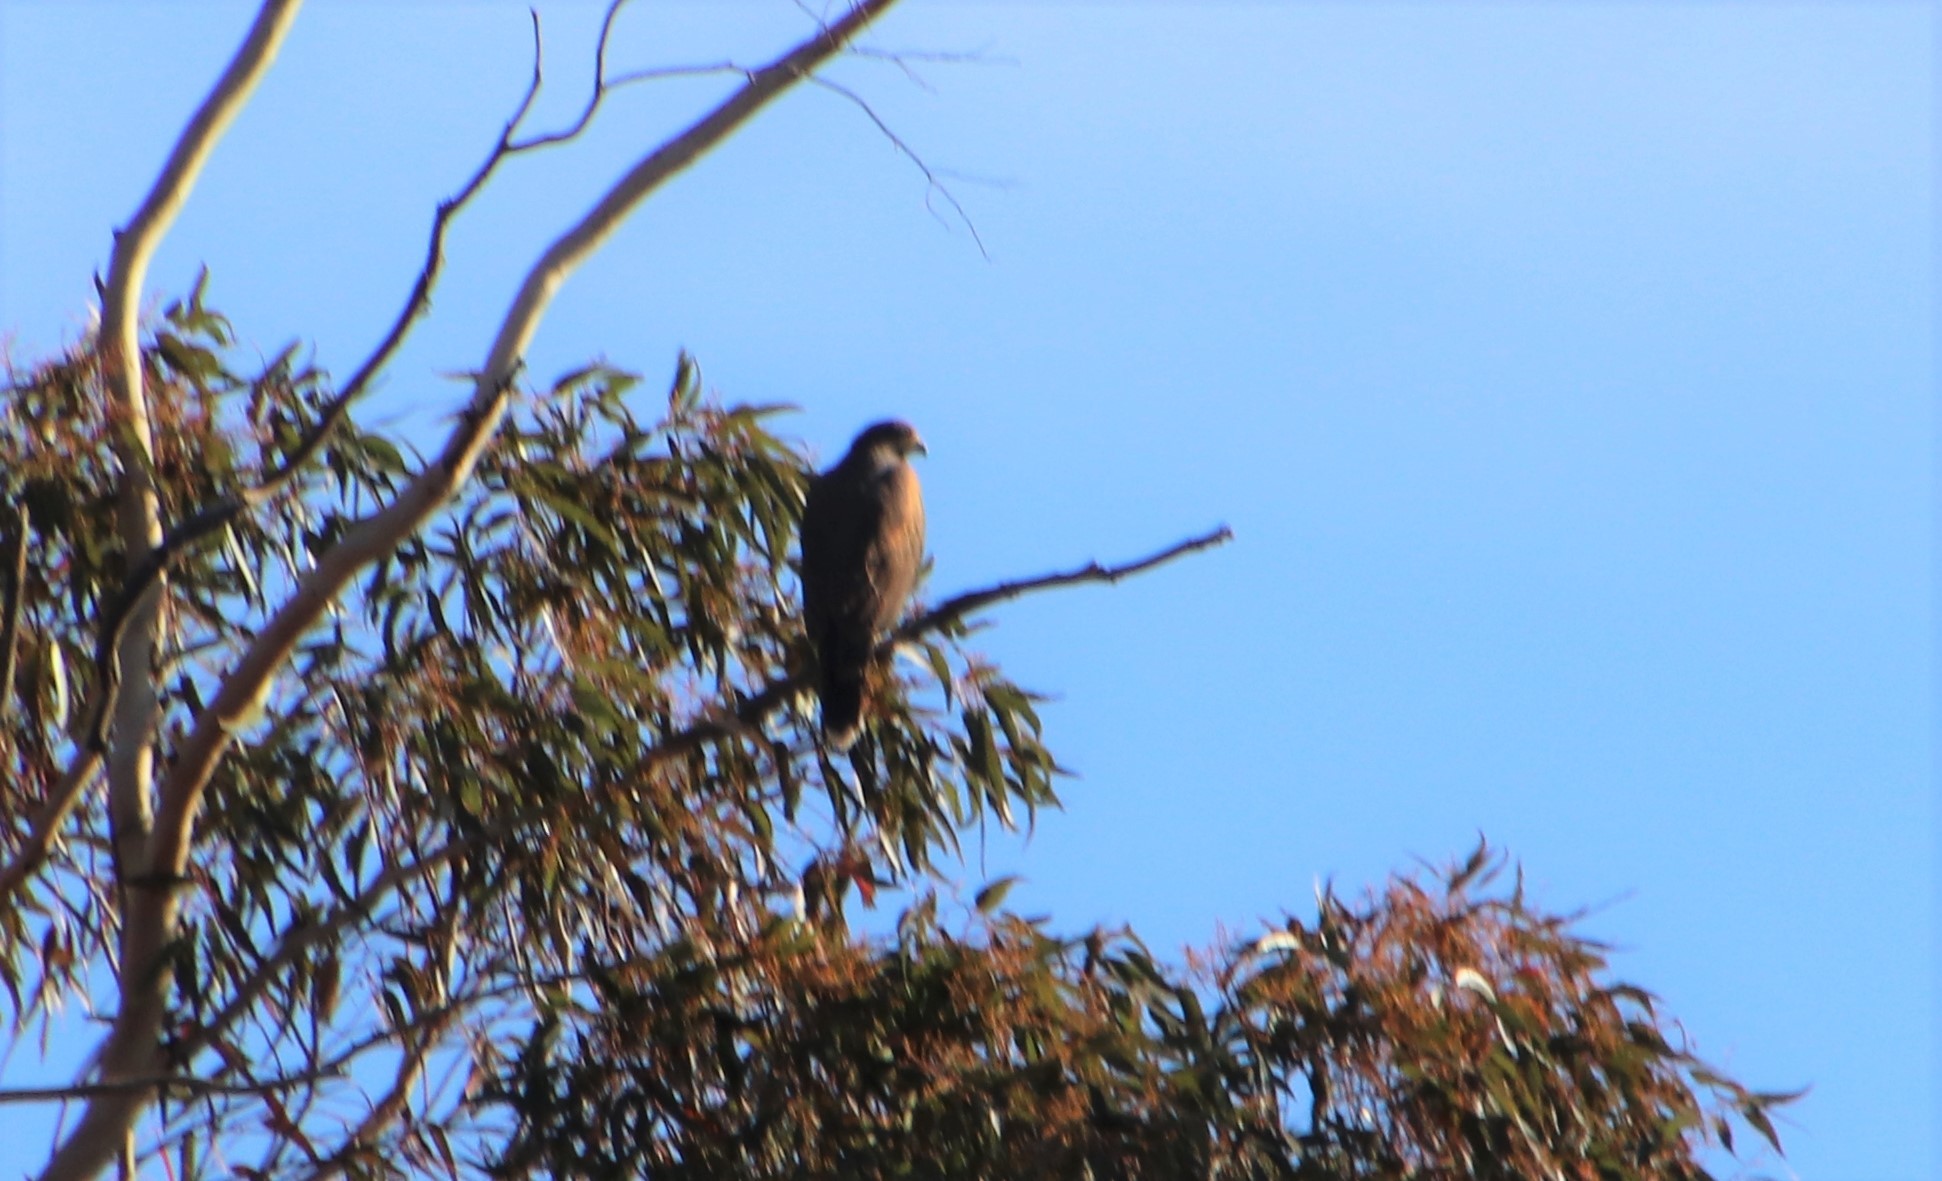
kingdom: Animalia
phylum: Chordata
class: Aves
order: Accipitriformes
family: Accipitridae
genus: Parabuteo
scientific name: Parabuteo unicinctus
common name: Harris's hawk
